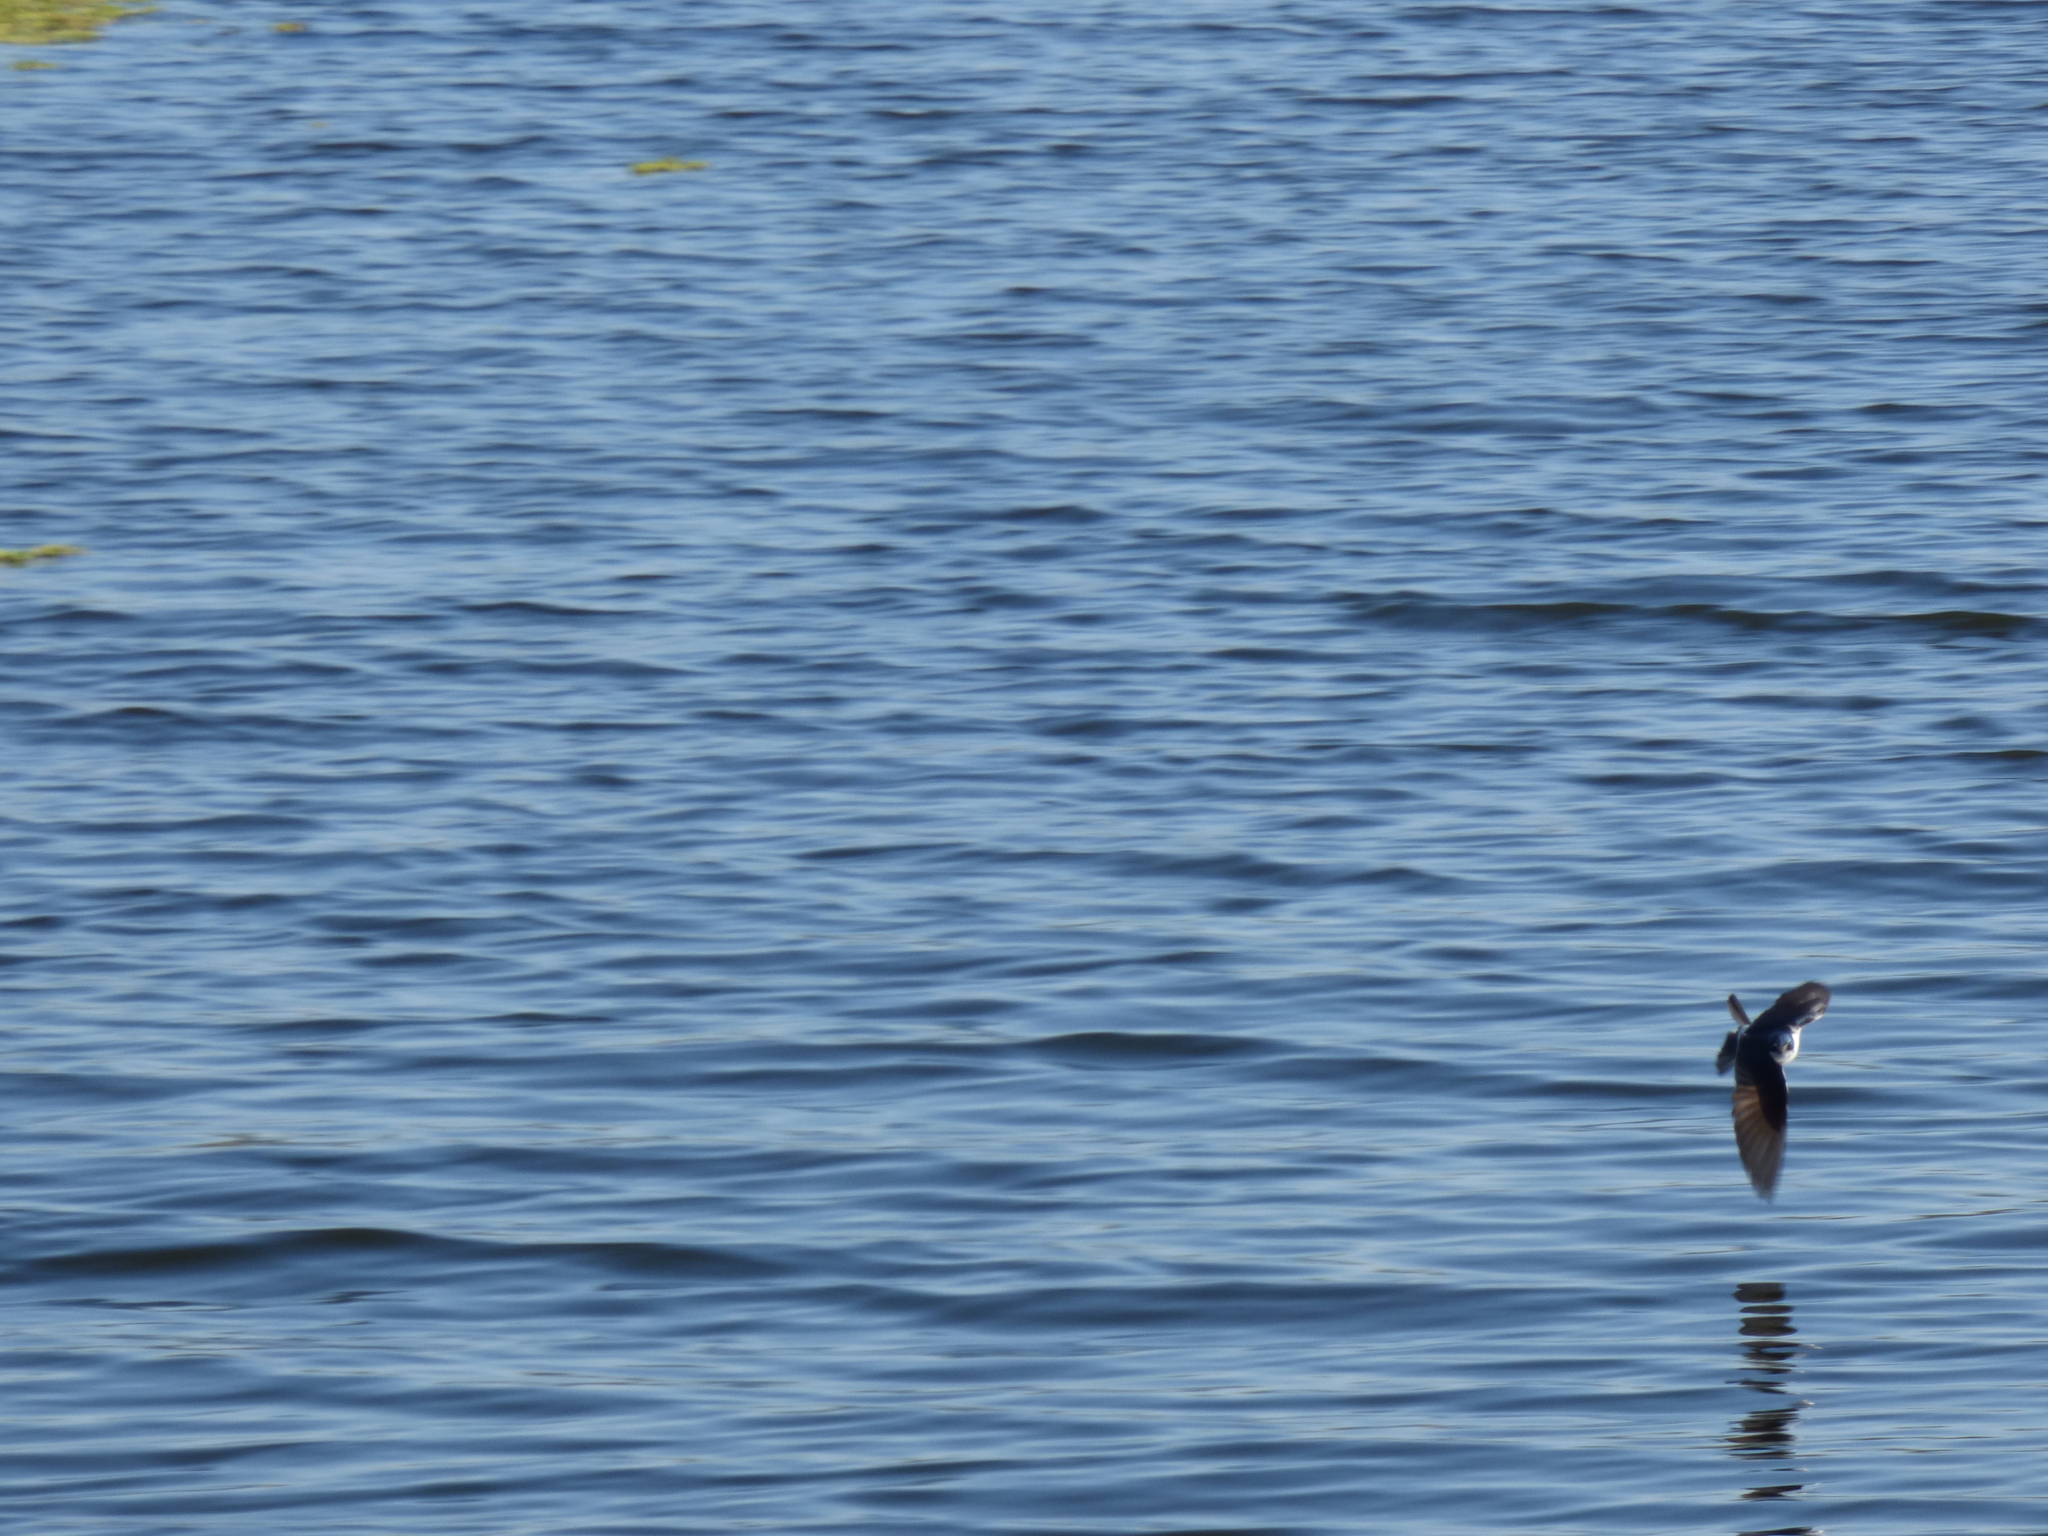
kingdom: Animalia
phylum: Chordata
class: Aves
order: Passeriformes
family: Hirundinidae
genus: Tachycineta
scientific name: Tachycineta leucorrhoa
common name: White-rumped swallow
